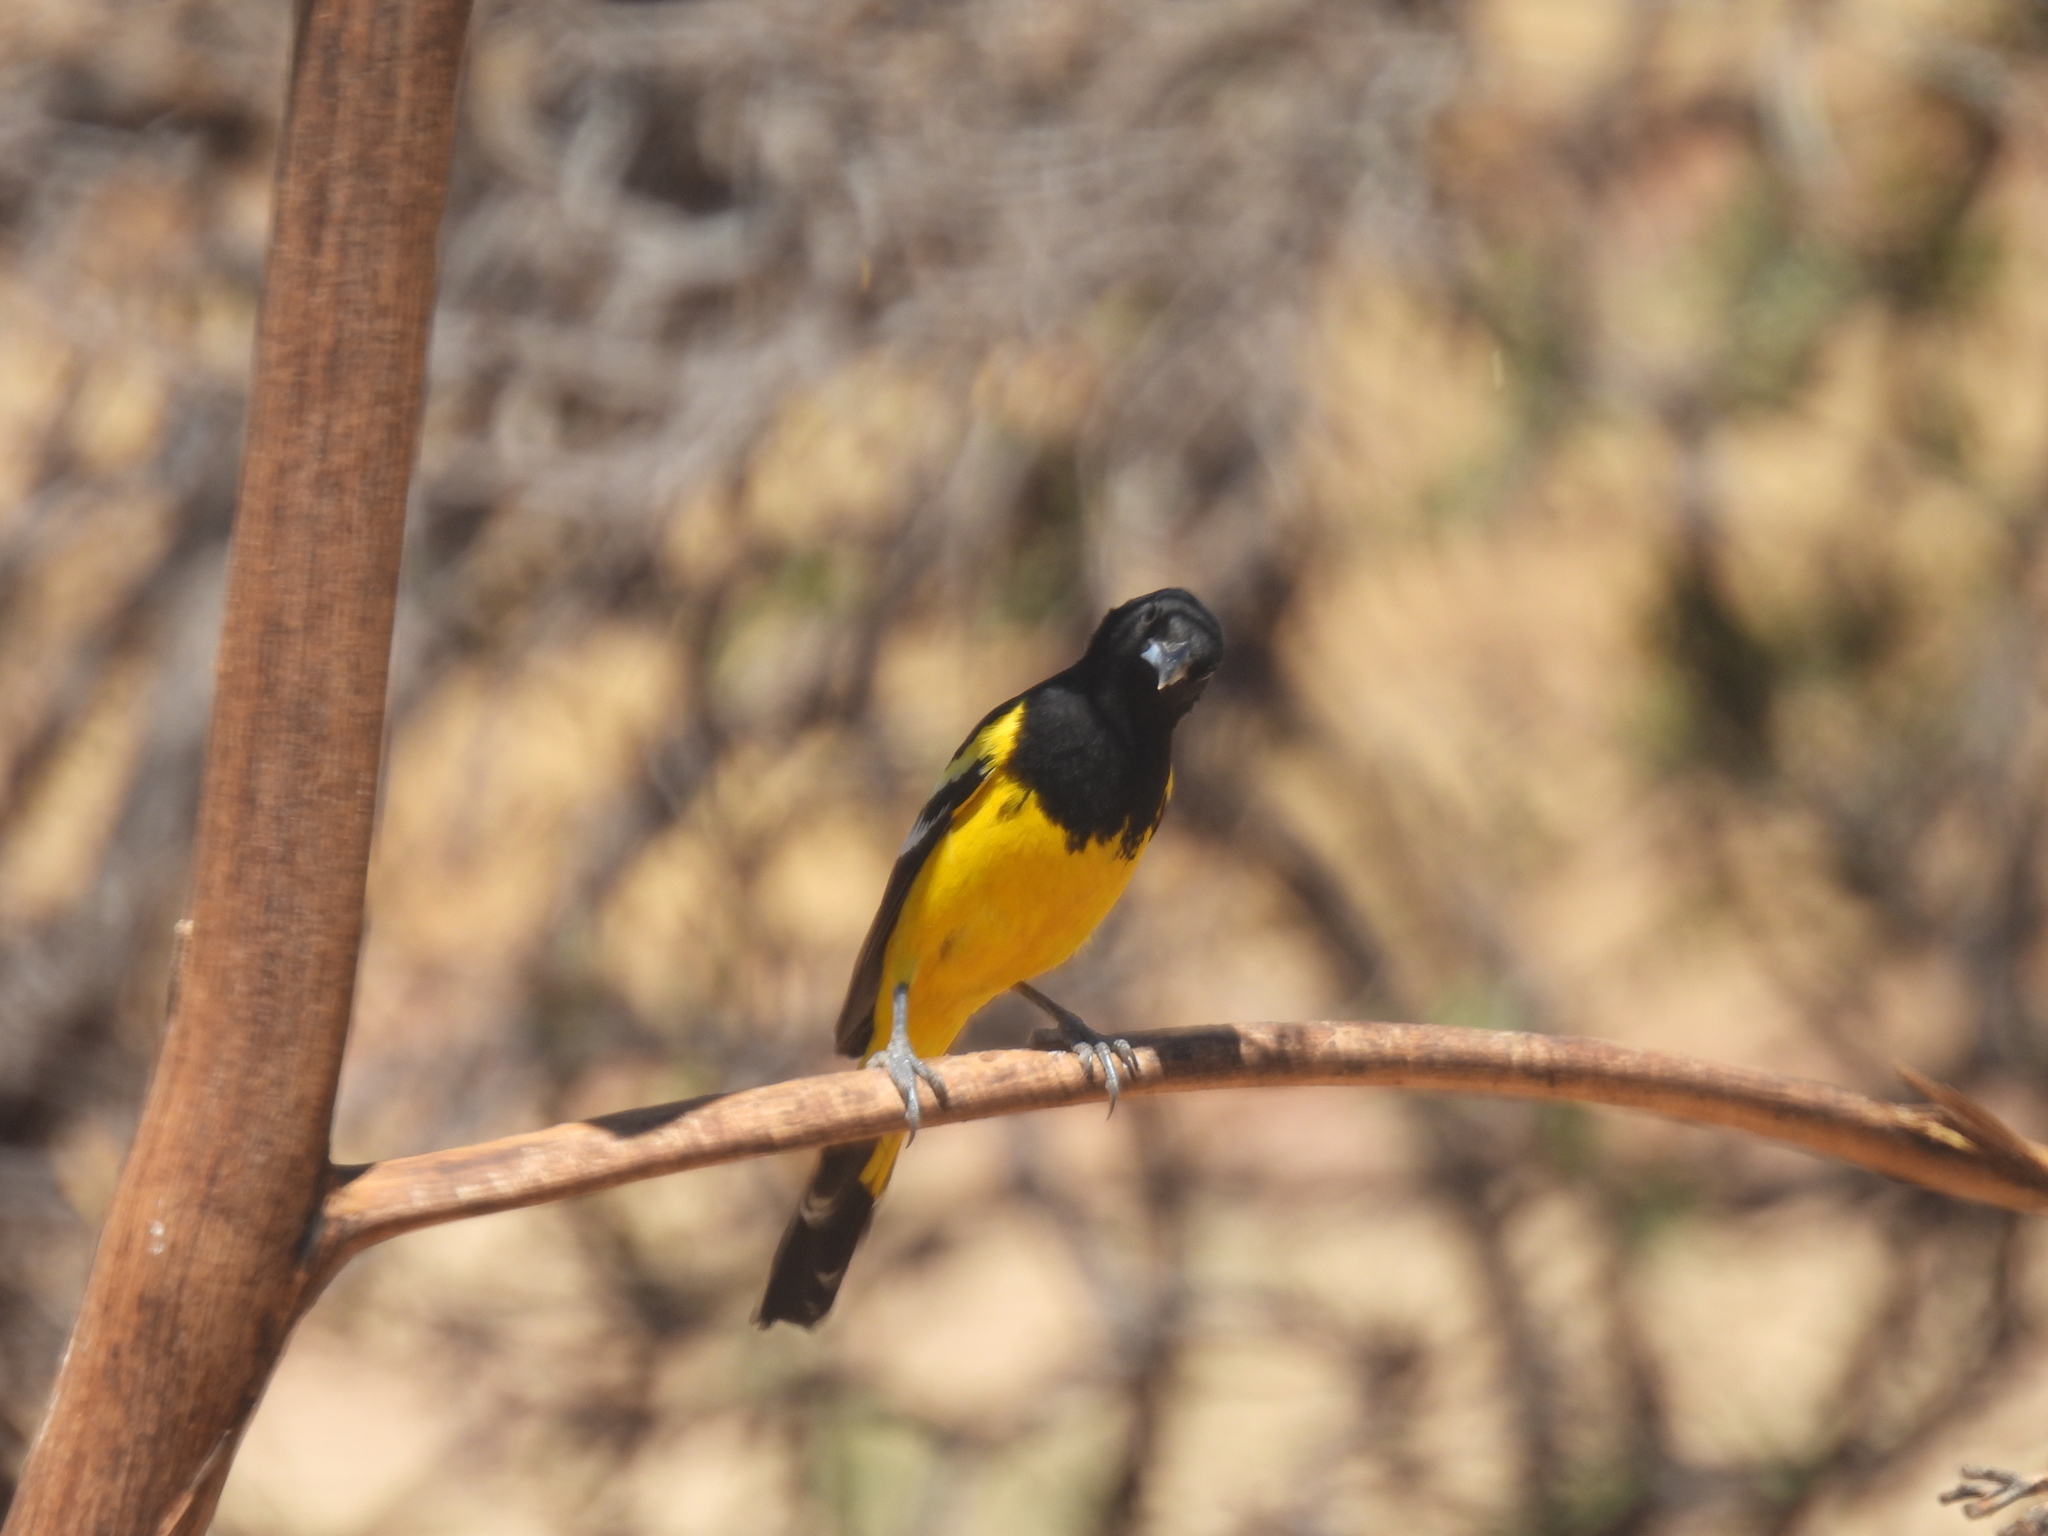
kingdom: Animalia
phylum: Chordata
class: Aves
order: Passeriformes
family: Icteridae
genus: Icterus
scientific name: Icterus parisorum
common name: Scott's oriole
